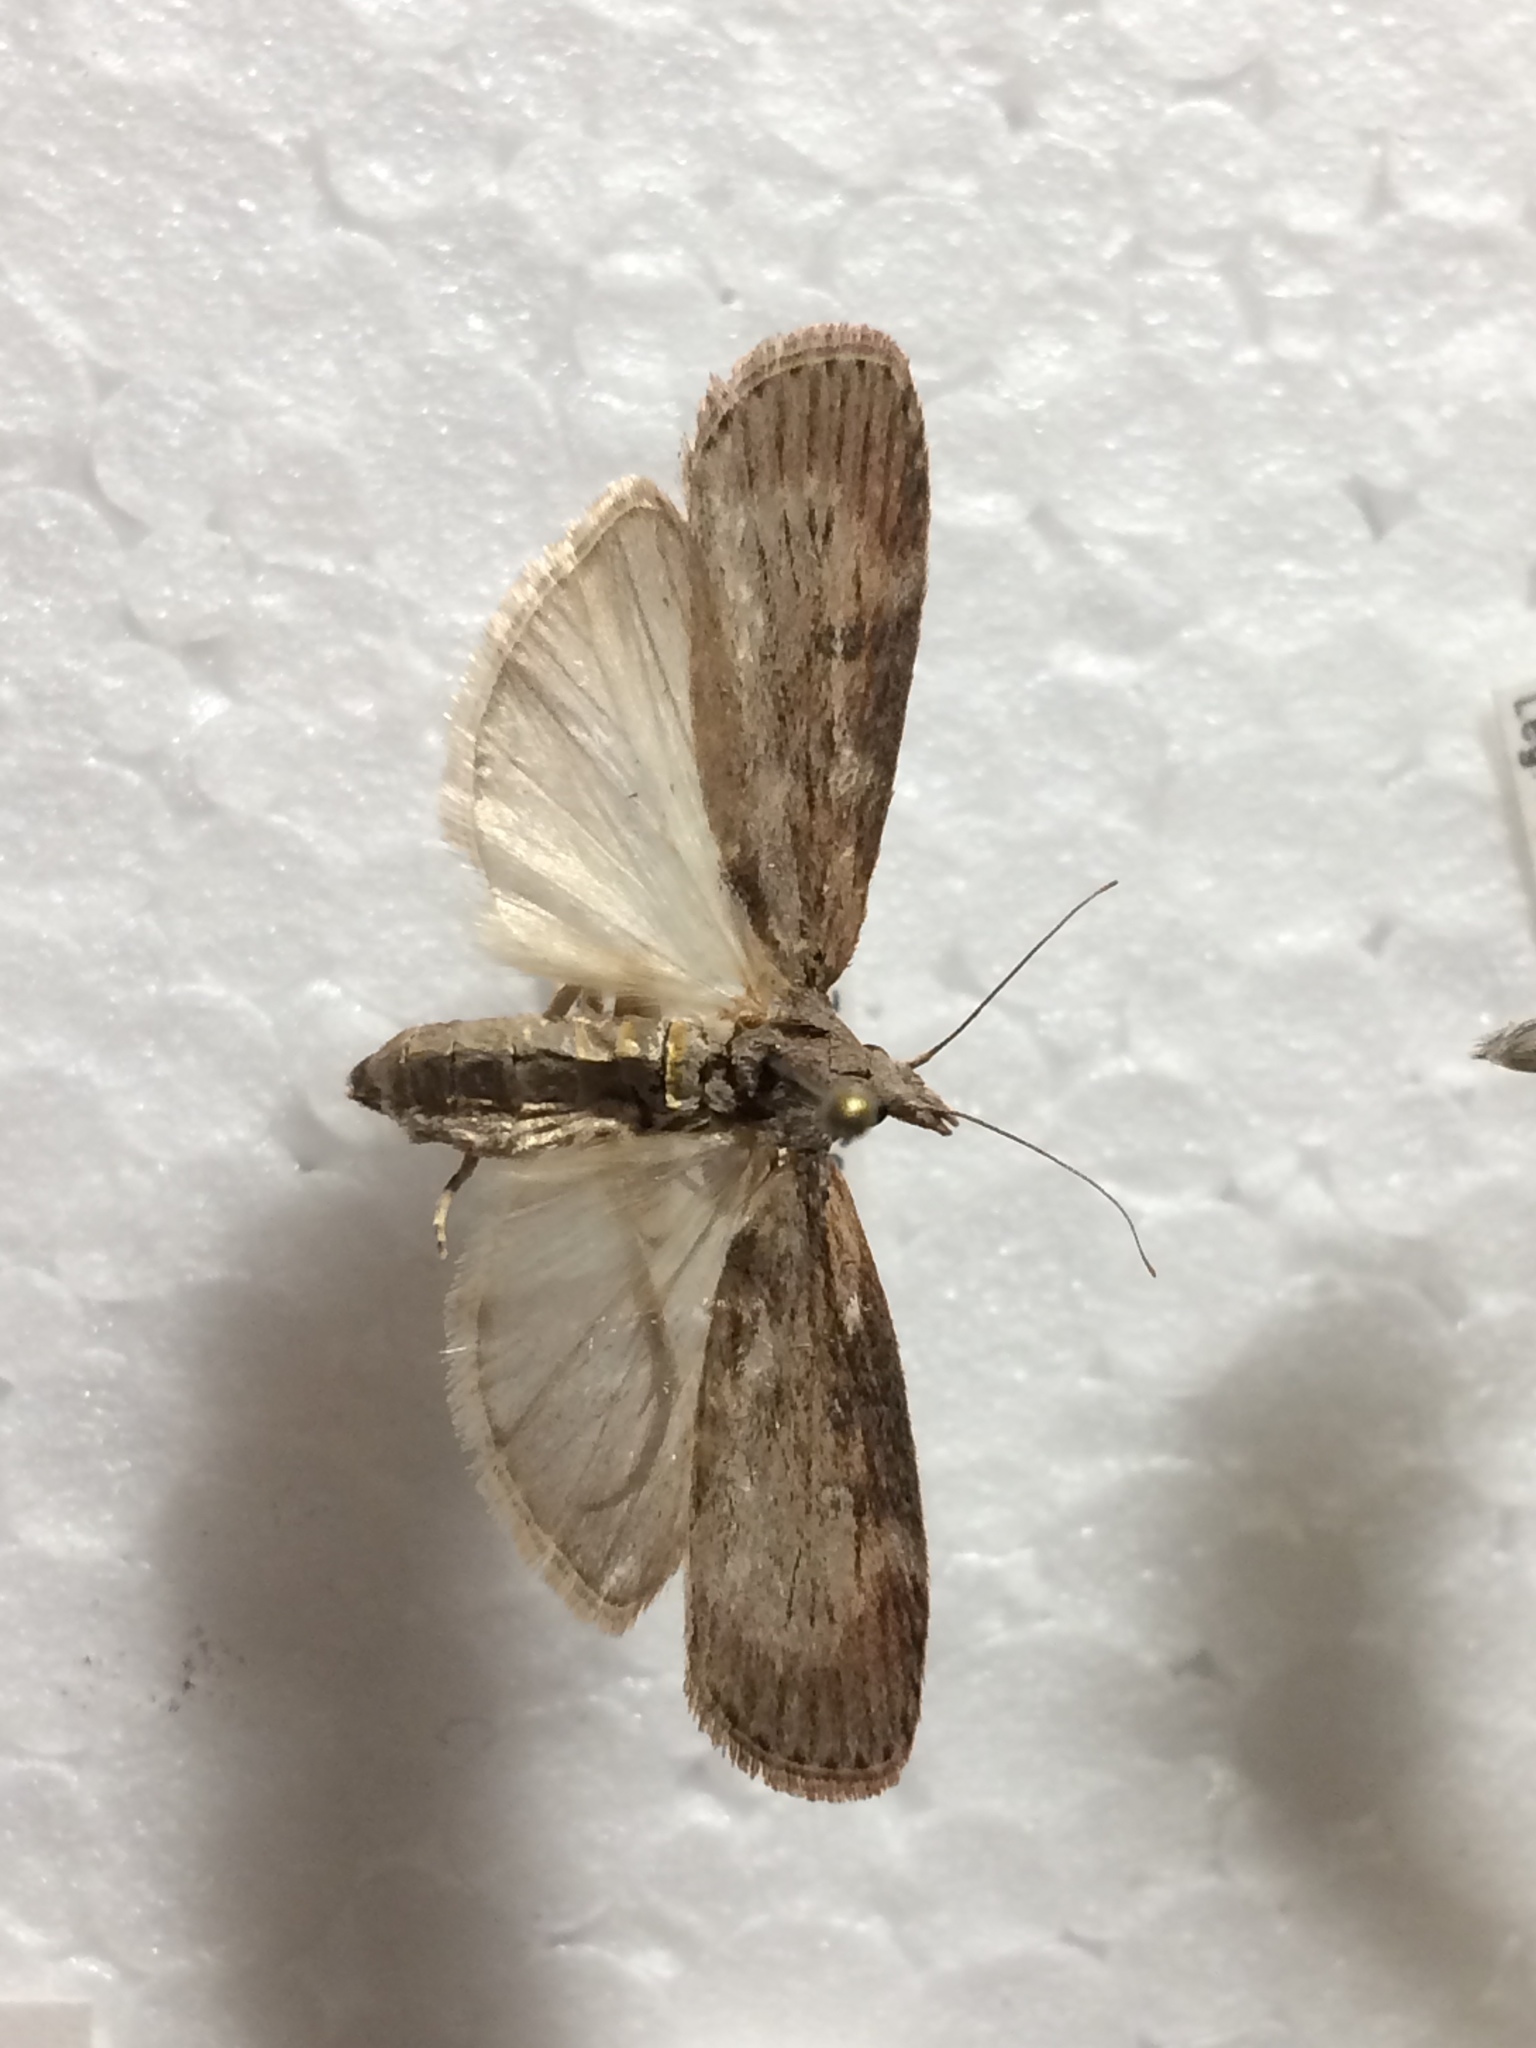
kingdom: Animalia
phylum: Arthropoda
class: Insecta
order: Lepidoptera
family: Pyralidae
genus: Lamoria
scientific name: Lamoria anella
